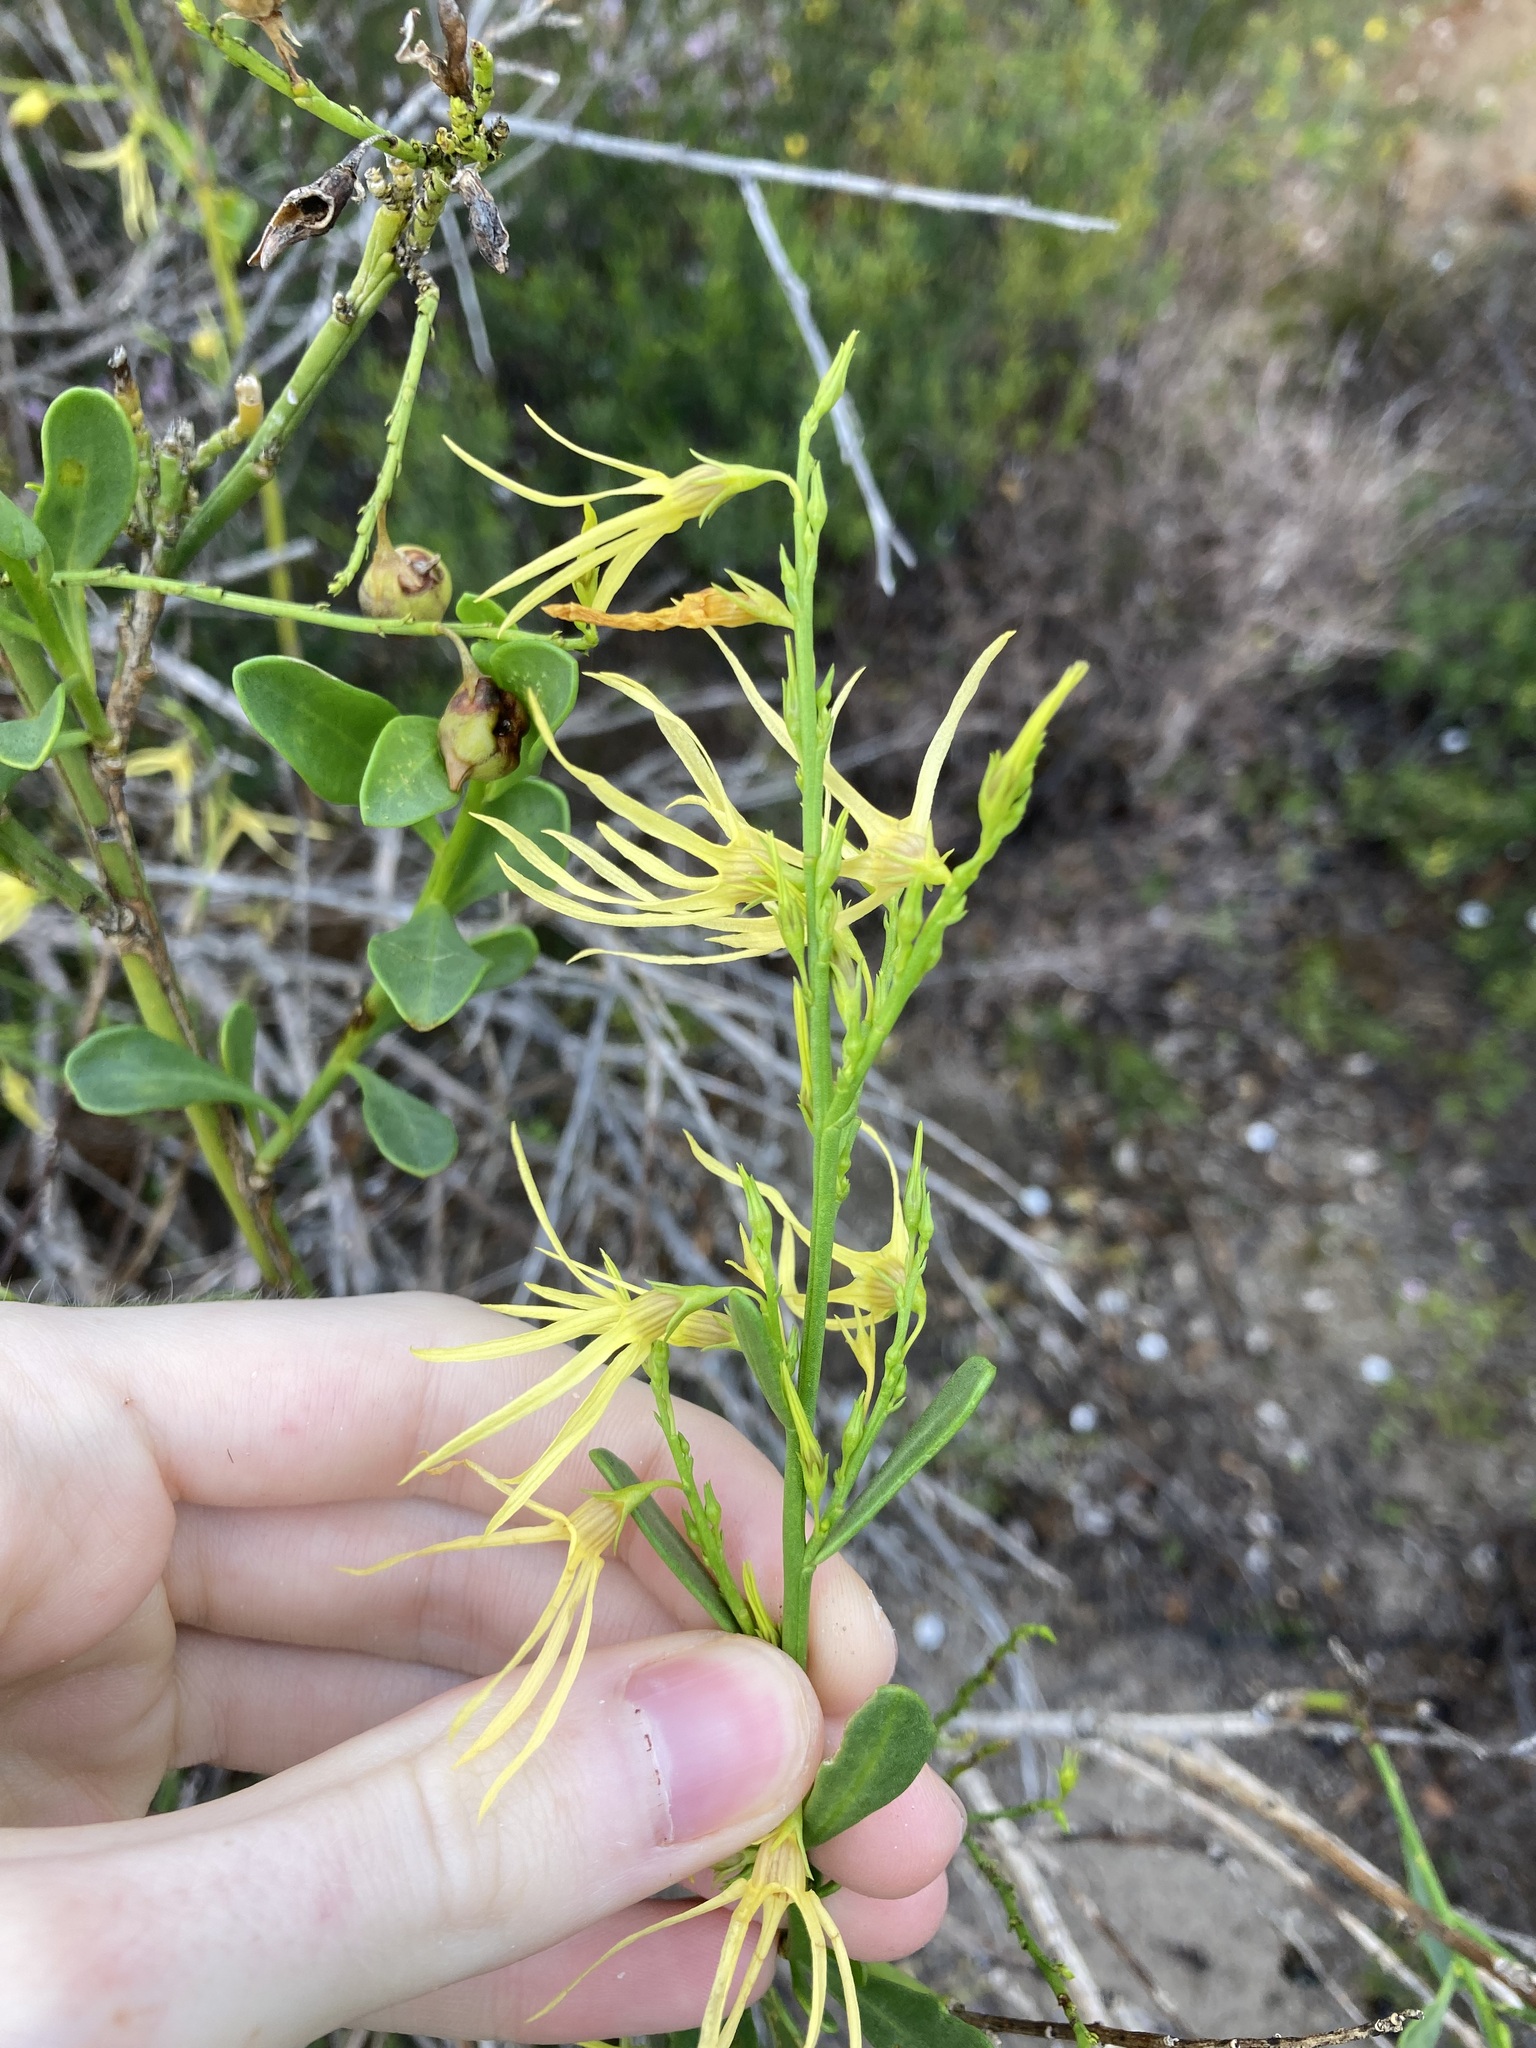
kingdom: Plantae
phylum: Tracheophyta
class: Magnoliopsida
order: Solanales
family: Solanaceae
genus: Anthocercis
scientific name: Anthocercis littorea
